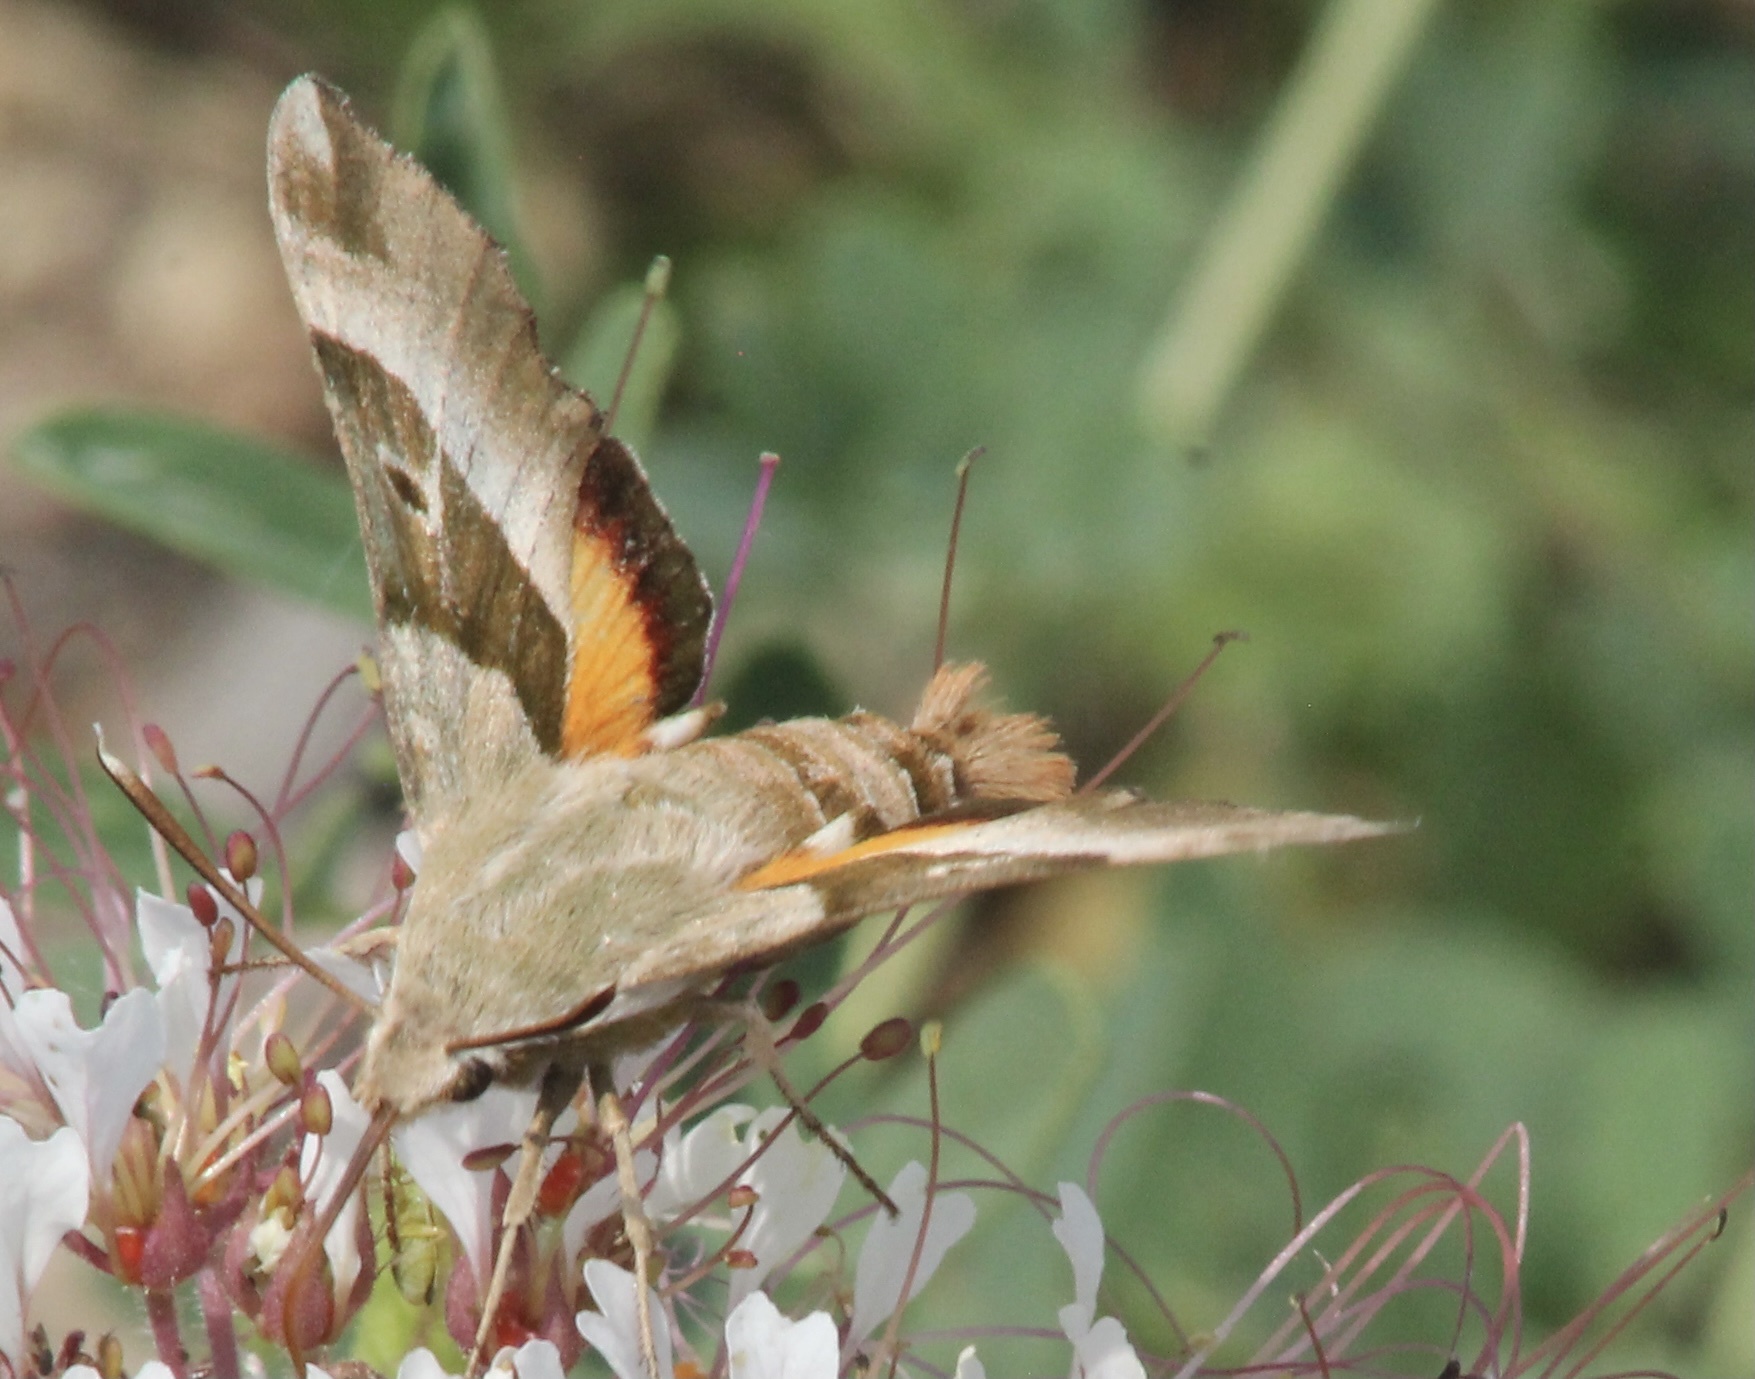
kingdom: Animalia
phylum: Arthropoda
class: Insecta
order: Lepidoptera
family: Sphingidae
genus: Proserpinus
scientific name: Proserpinus juanita
